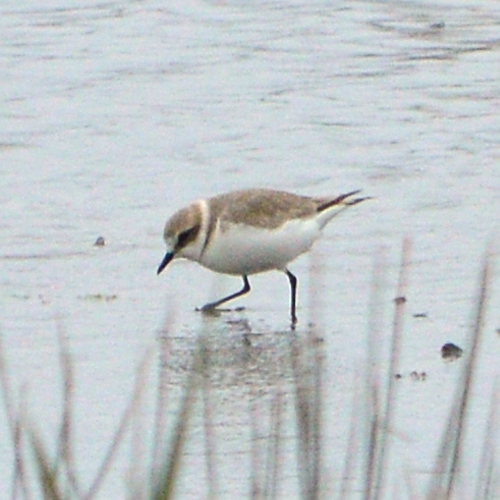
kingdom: Animalia
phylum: Chordata
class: Aves
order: Charadriiformes
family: Charadriidae
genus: Charadrius
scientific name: Charadrius alexandrinus
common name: Kentish plover
